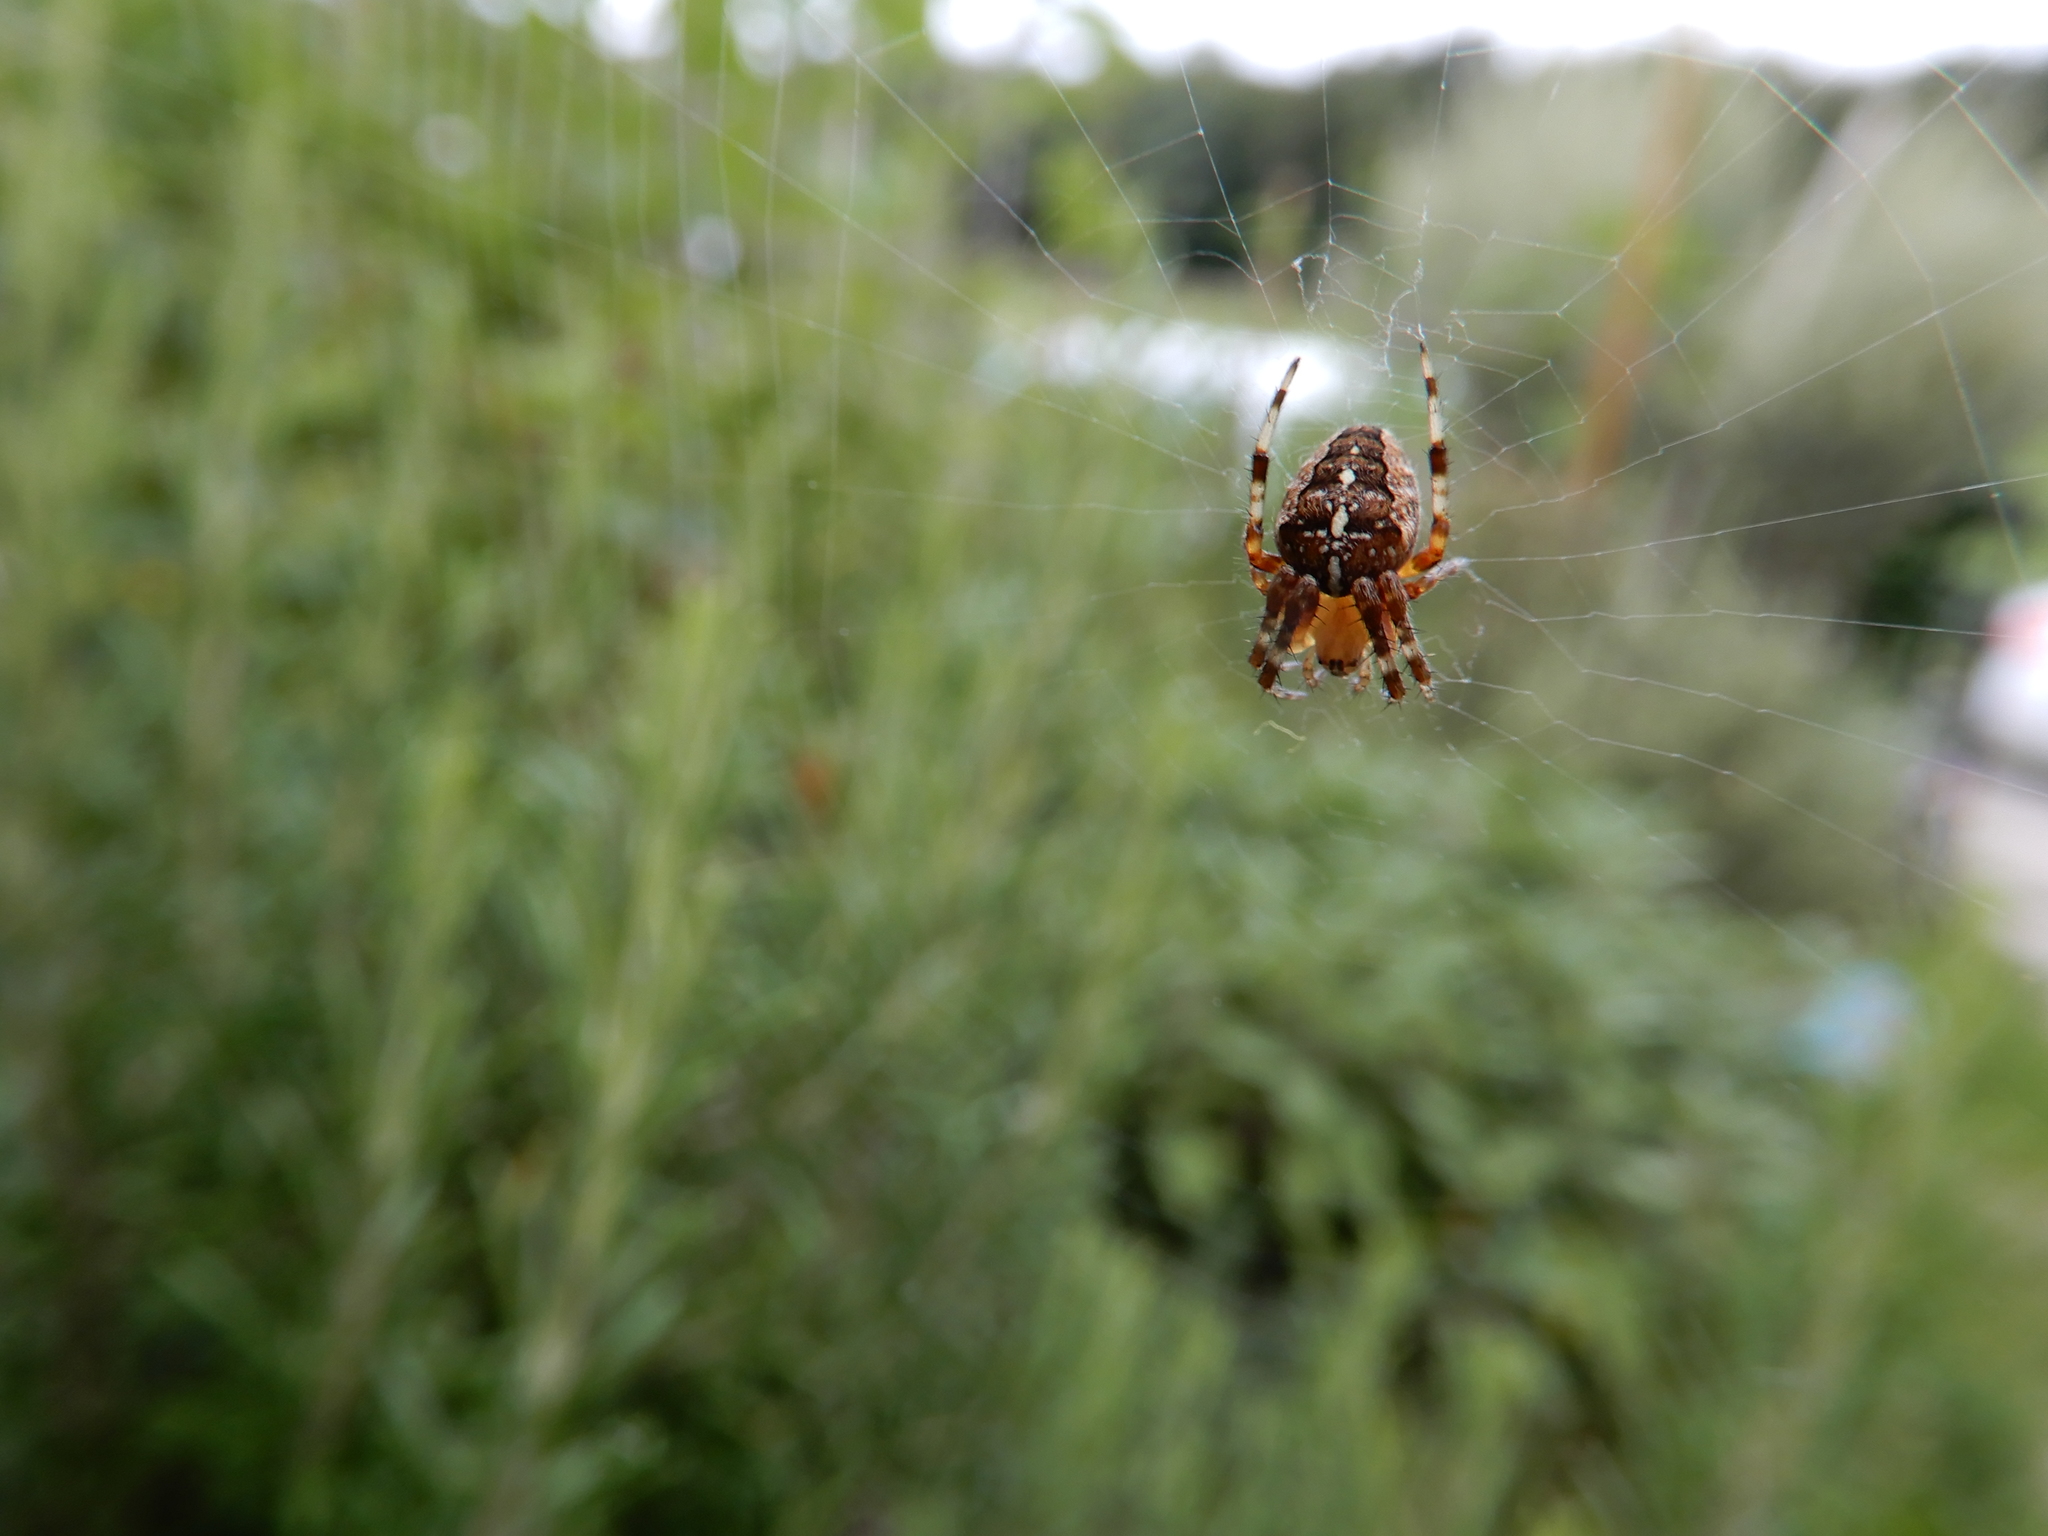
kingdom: Animalia
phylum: Arthropoda
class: Arachnida
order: Araneae
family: Araneidae
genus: Araneus
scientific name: Araneus diadematus
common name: Cross orbweaver
